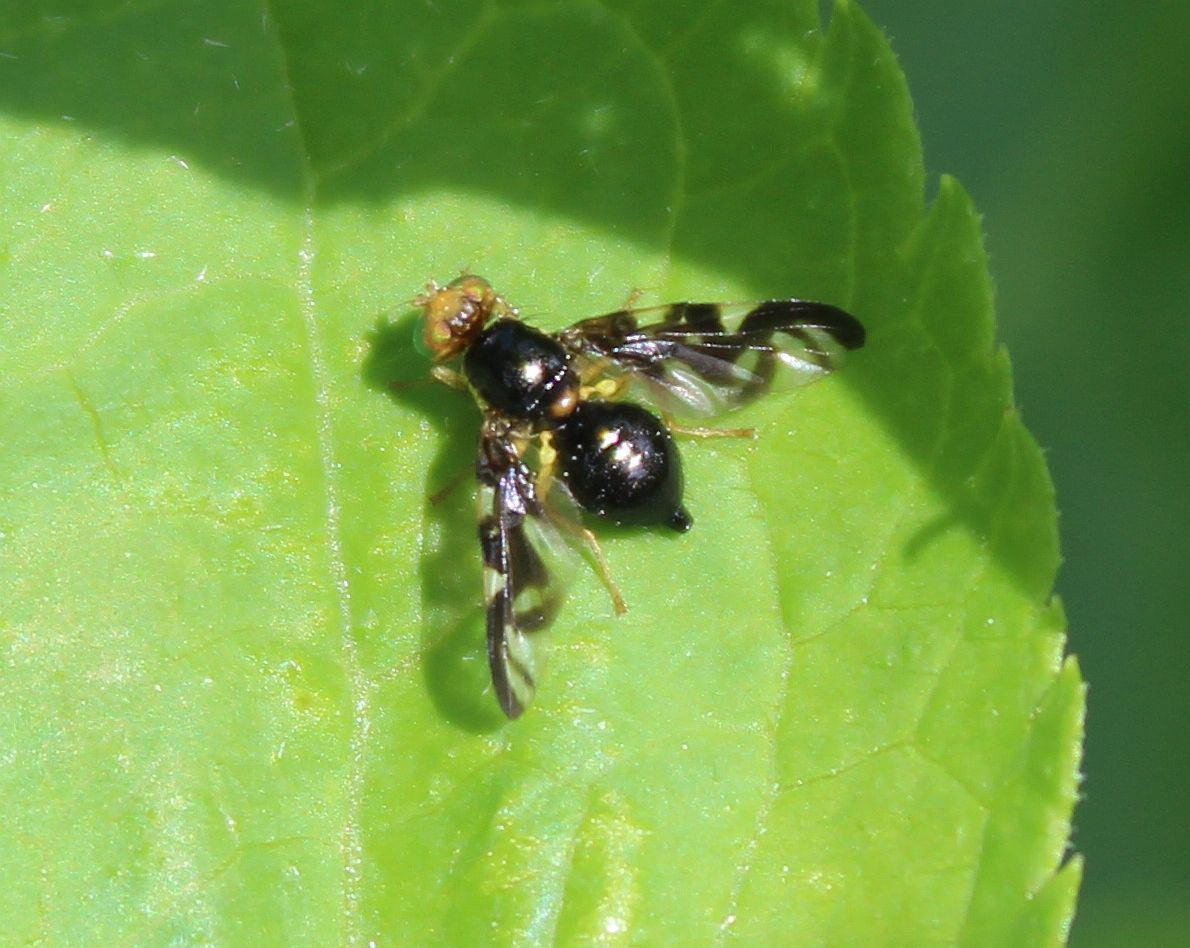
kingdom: Animalia
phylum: Arthropoda
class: Insecta
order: Diptera
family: Tephritidae
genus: Euleia
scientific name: Euleia heraclei
